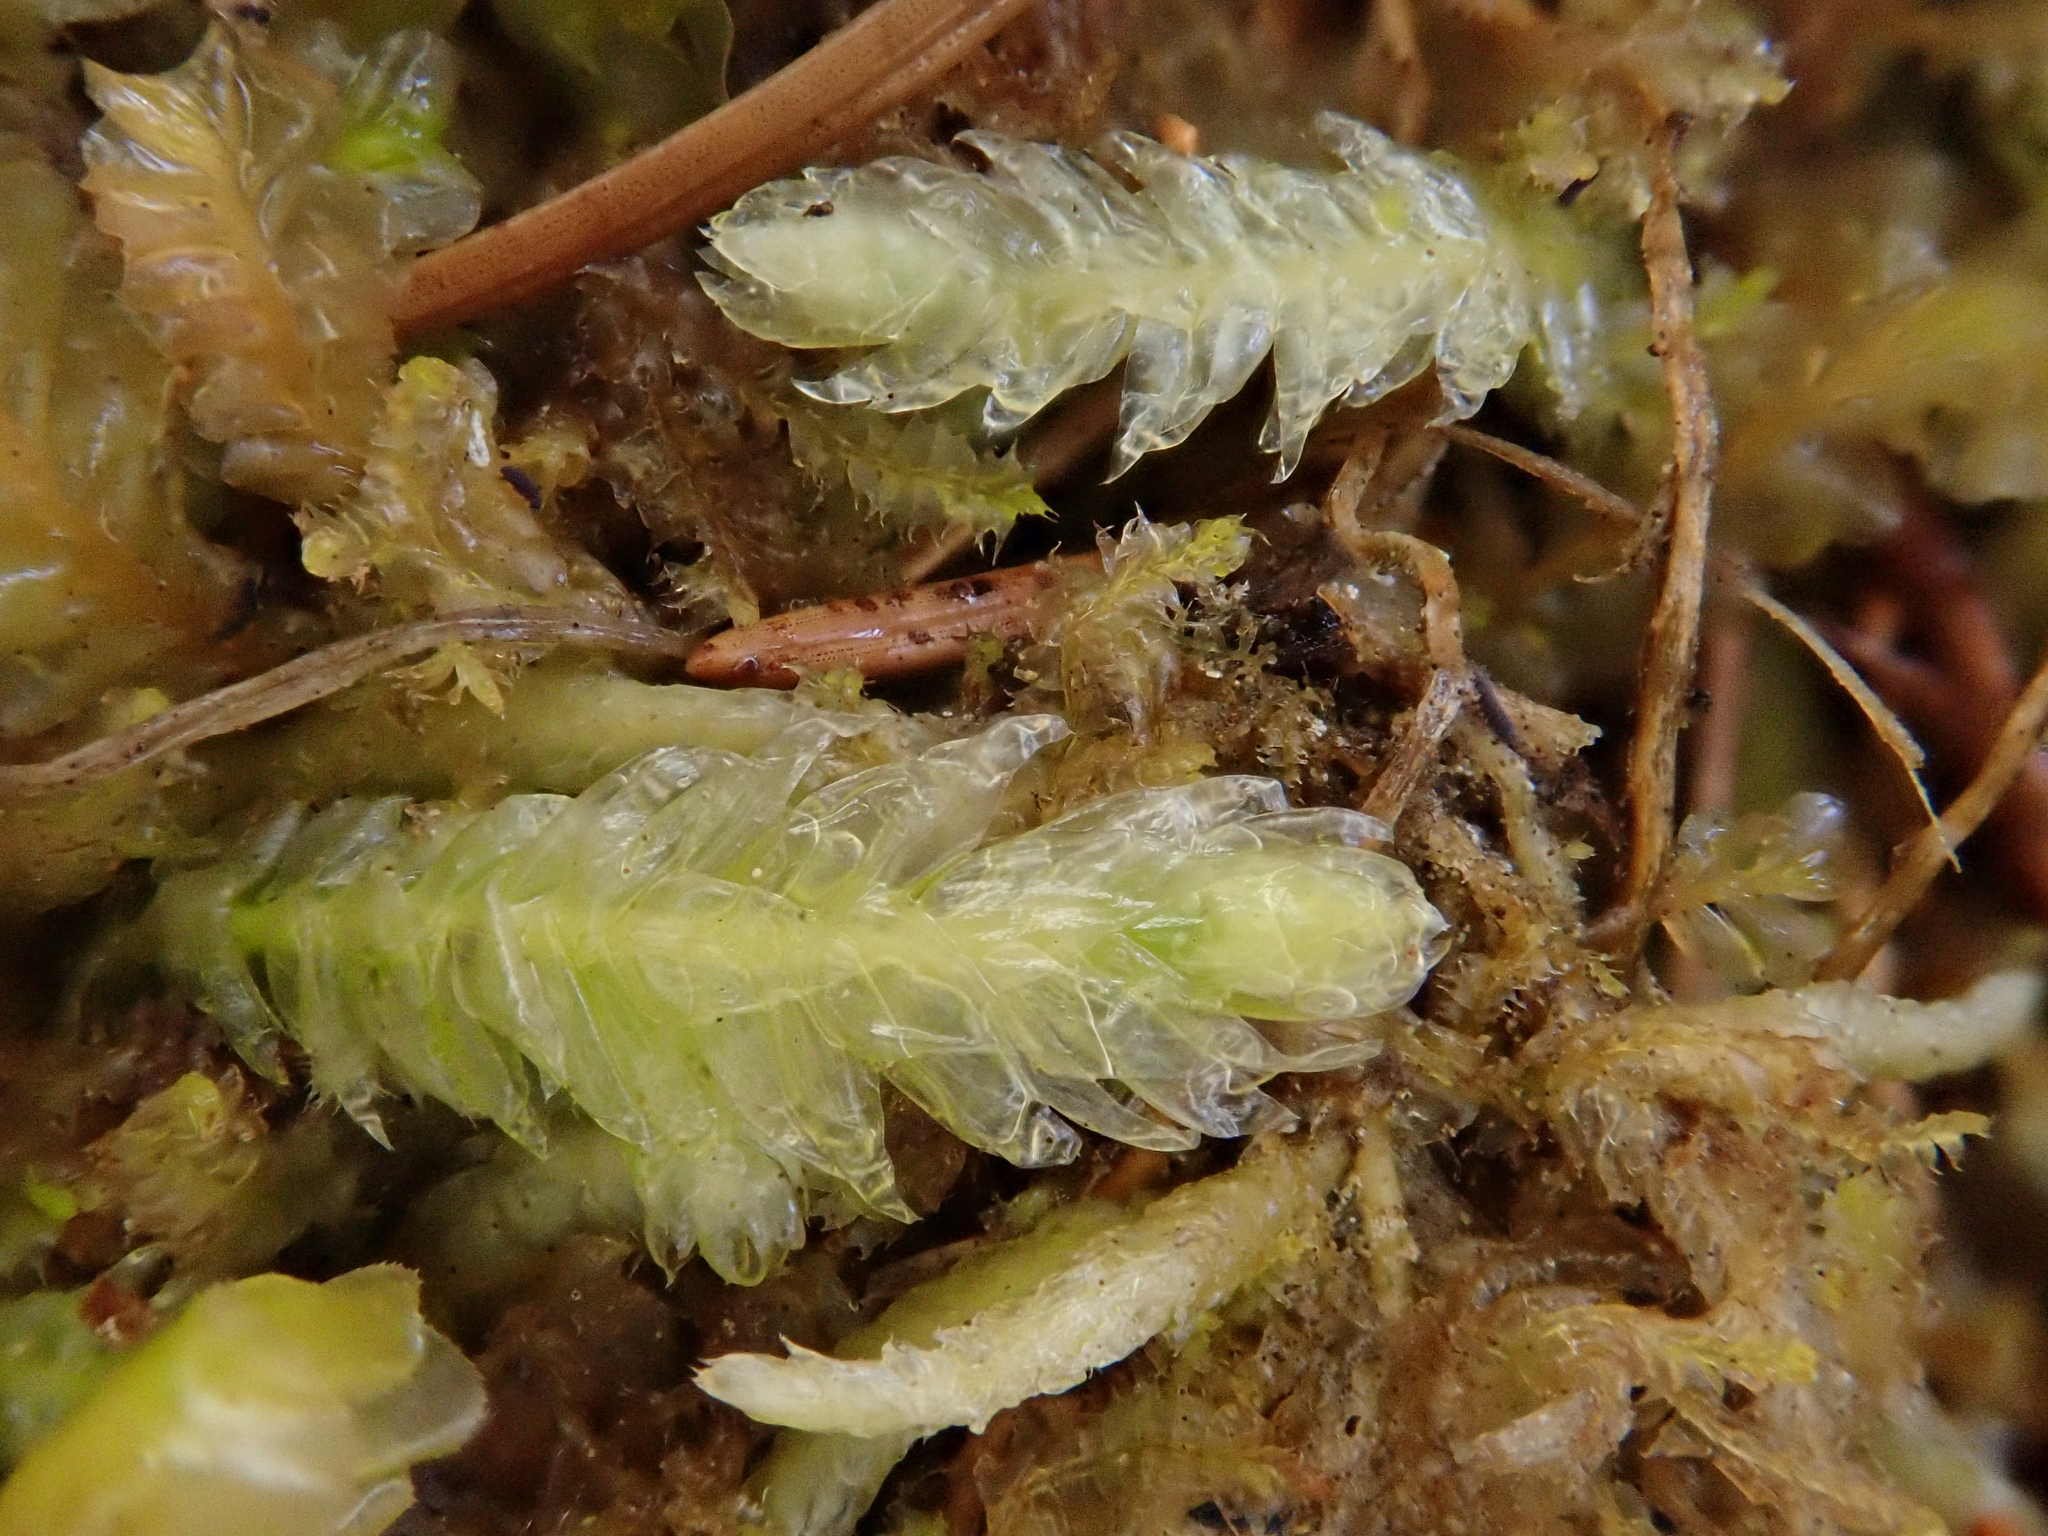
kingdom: Plantae
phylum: Bryophyta
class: Bryopsida
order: Hypnales
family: Plagiotheciaceae
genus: Plagiothecium
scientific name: Plagiothecium undulatum
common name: Waved silk-moss
